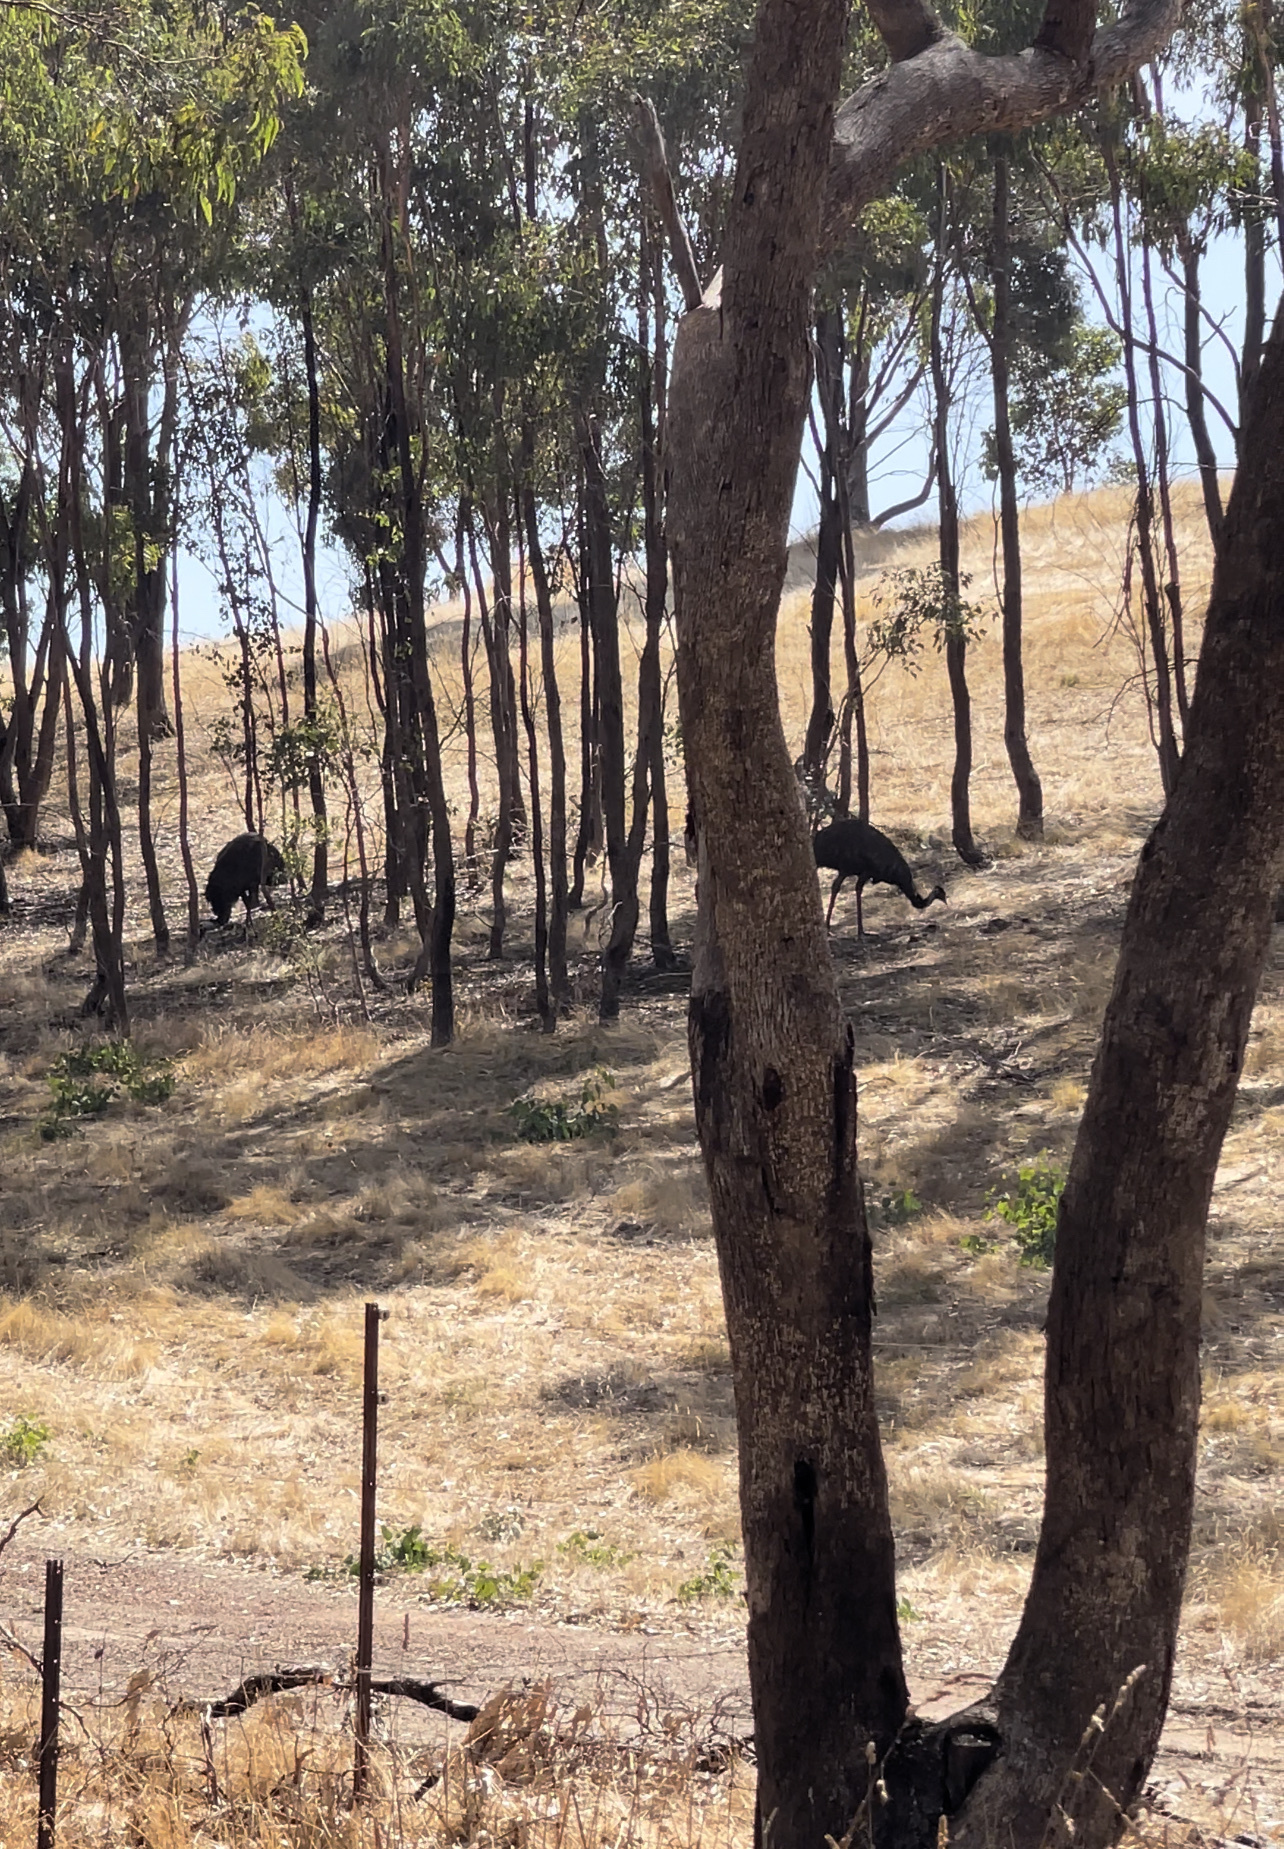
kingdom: Animalia
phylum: Chordata
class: Aves
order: Casuariiformes
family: Dromaiidae
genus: Dromaius
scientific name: Dromaius novaehollandiae
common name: Emu
